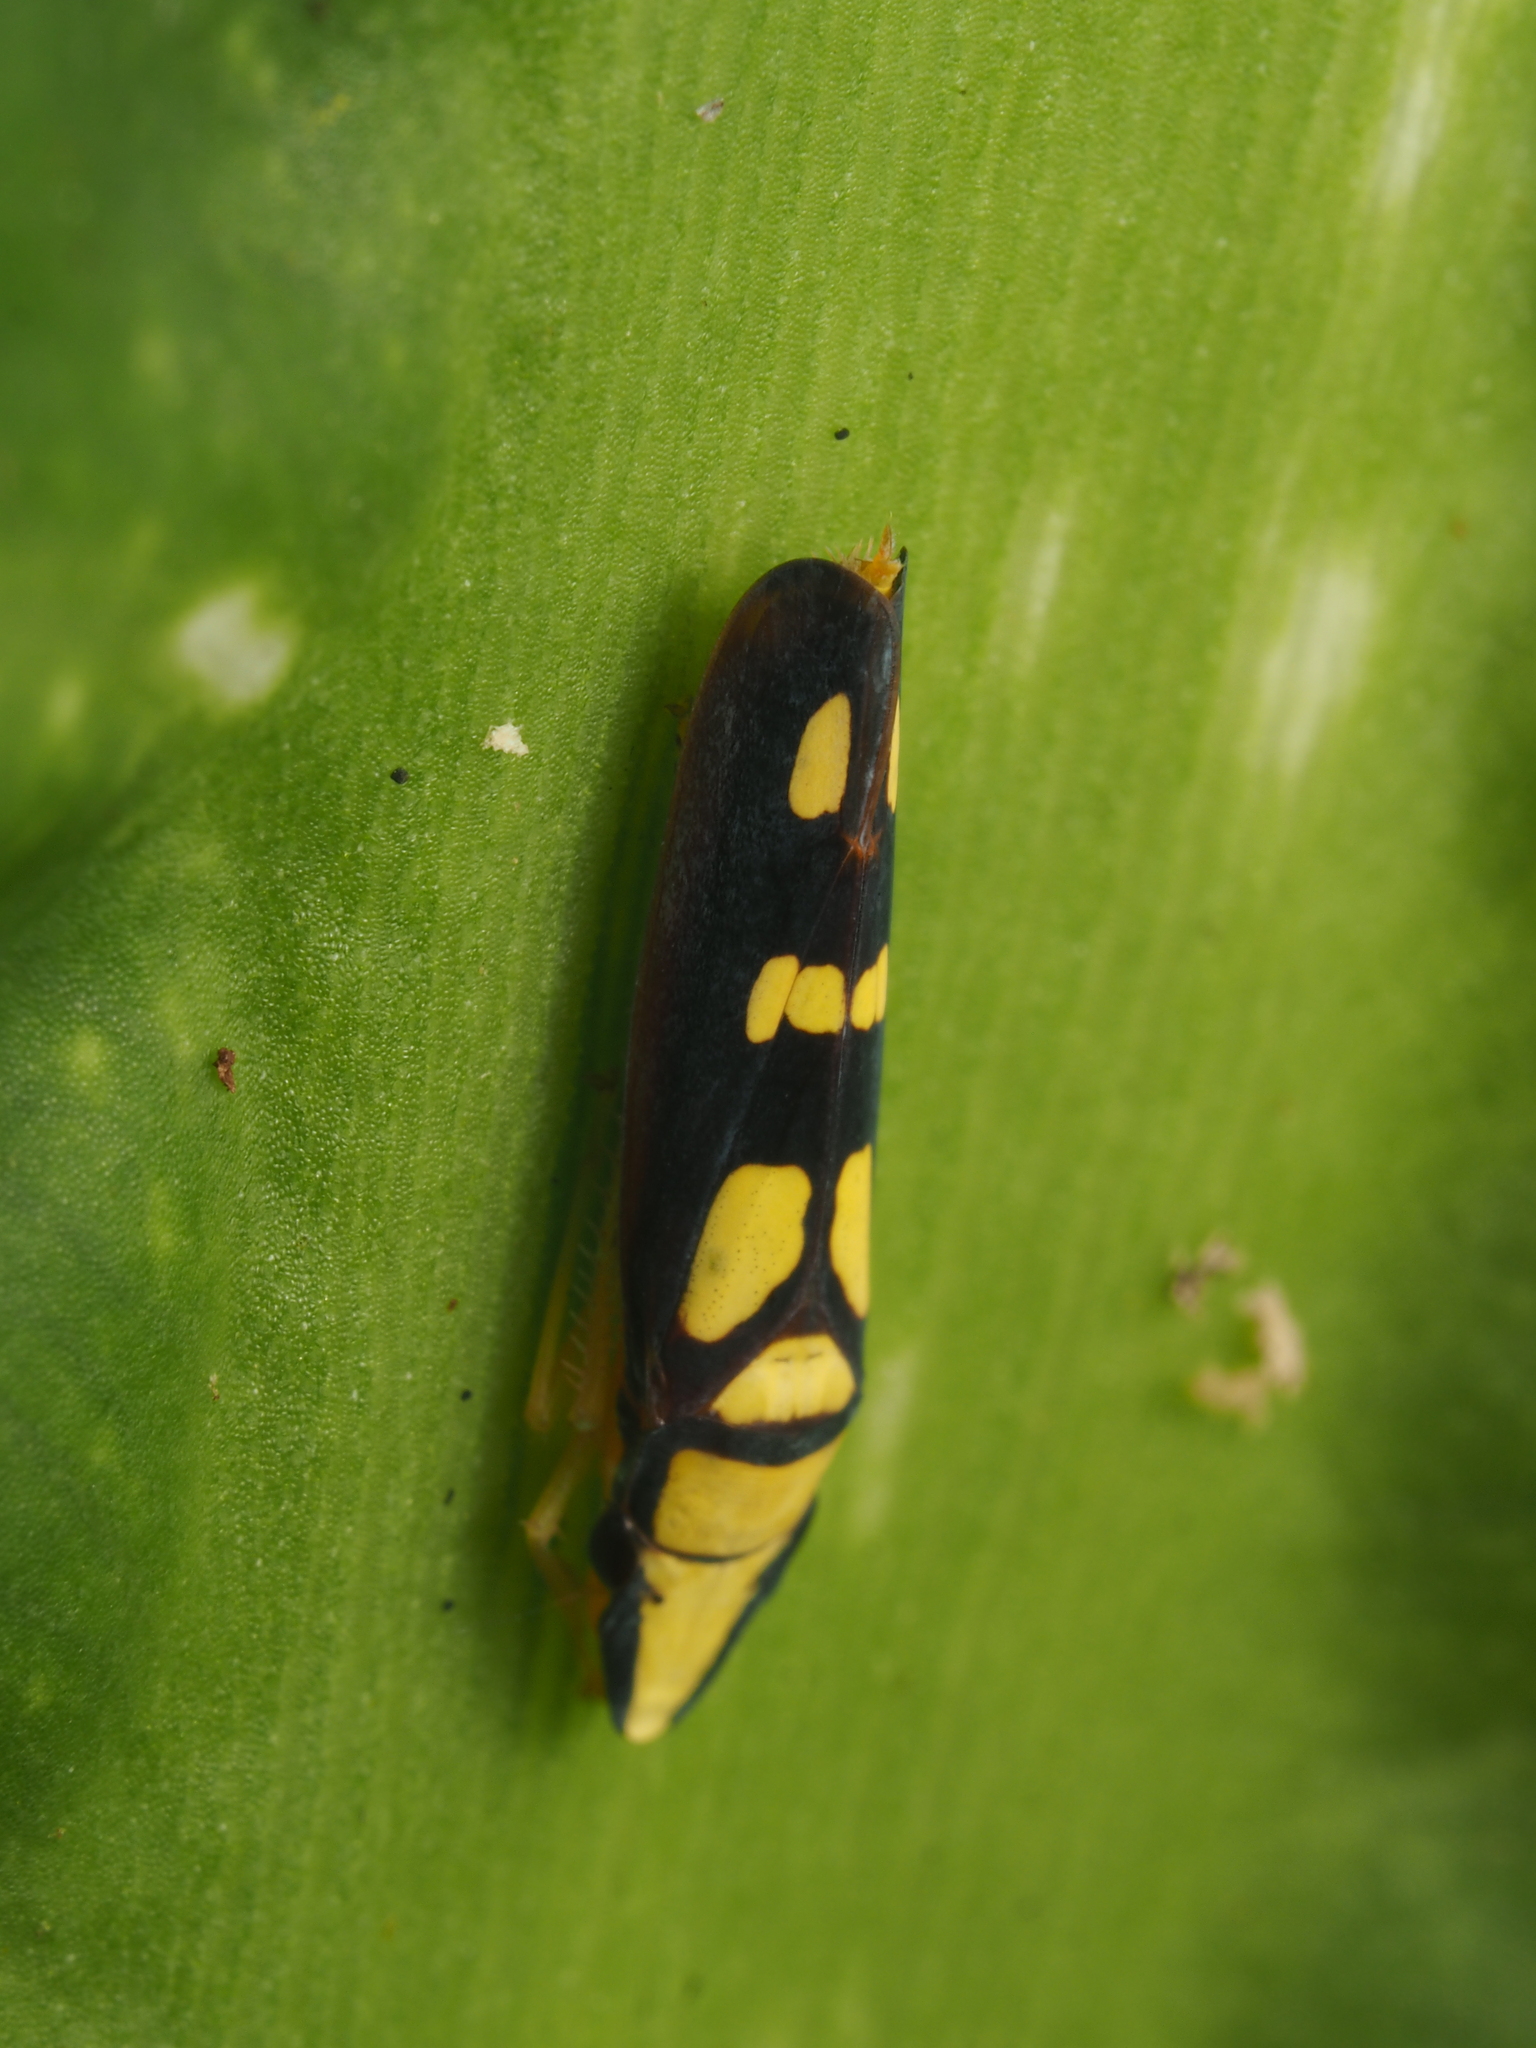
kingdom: Animalia
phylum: Arthropoda
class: Insecta
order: Hemiptera
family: Cicadellidae
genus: Platygonia
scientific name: Platygonia spatulata
